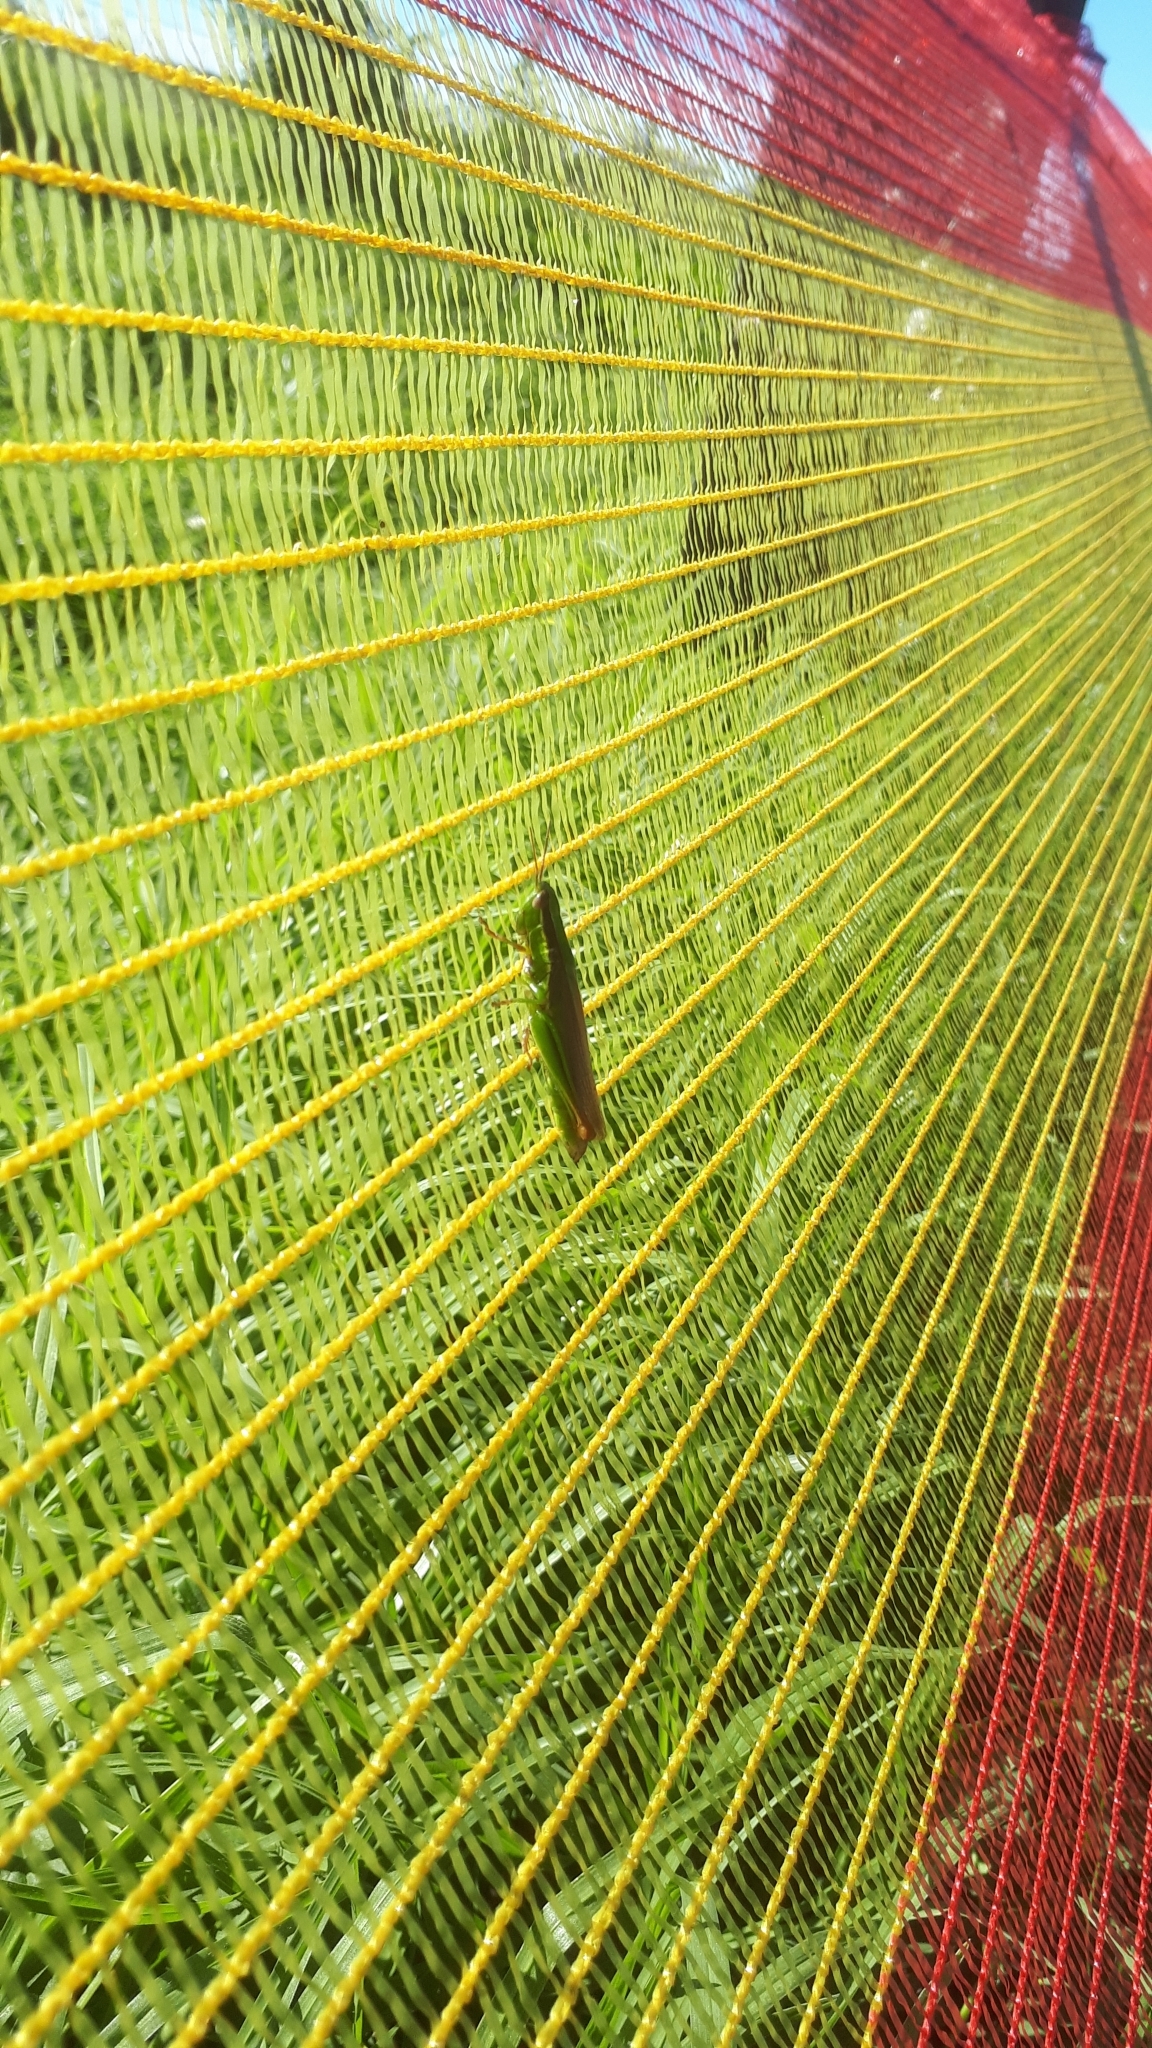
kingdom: Animalia
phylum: Arthropoda
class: Insecta
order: Orthoptera
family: Acrididae
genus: Bermius
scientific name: Bermius brachycerus
